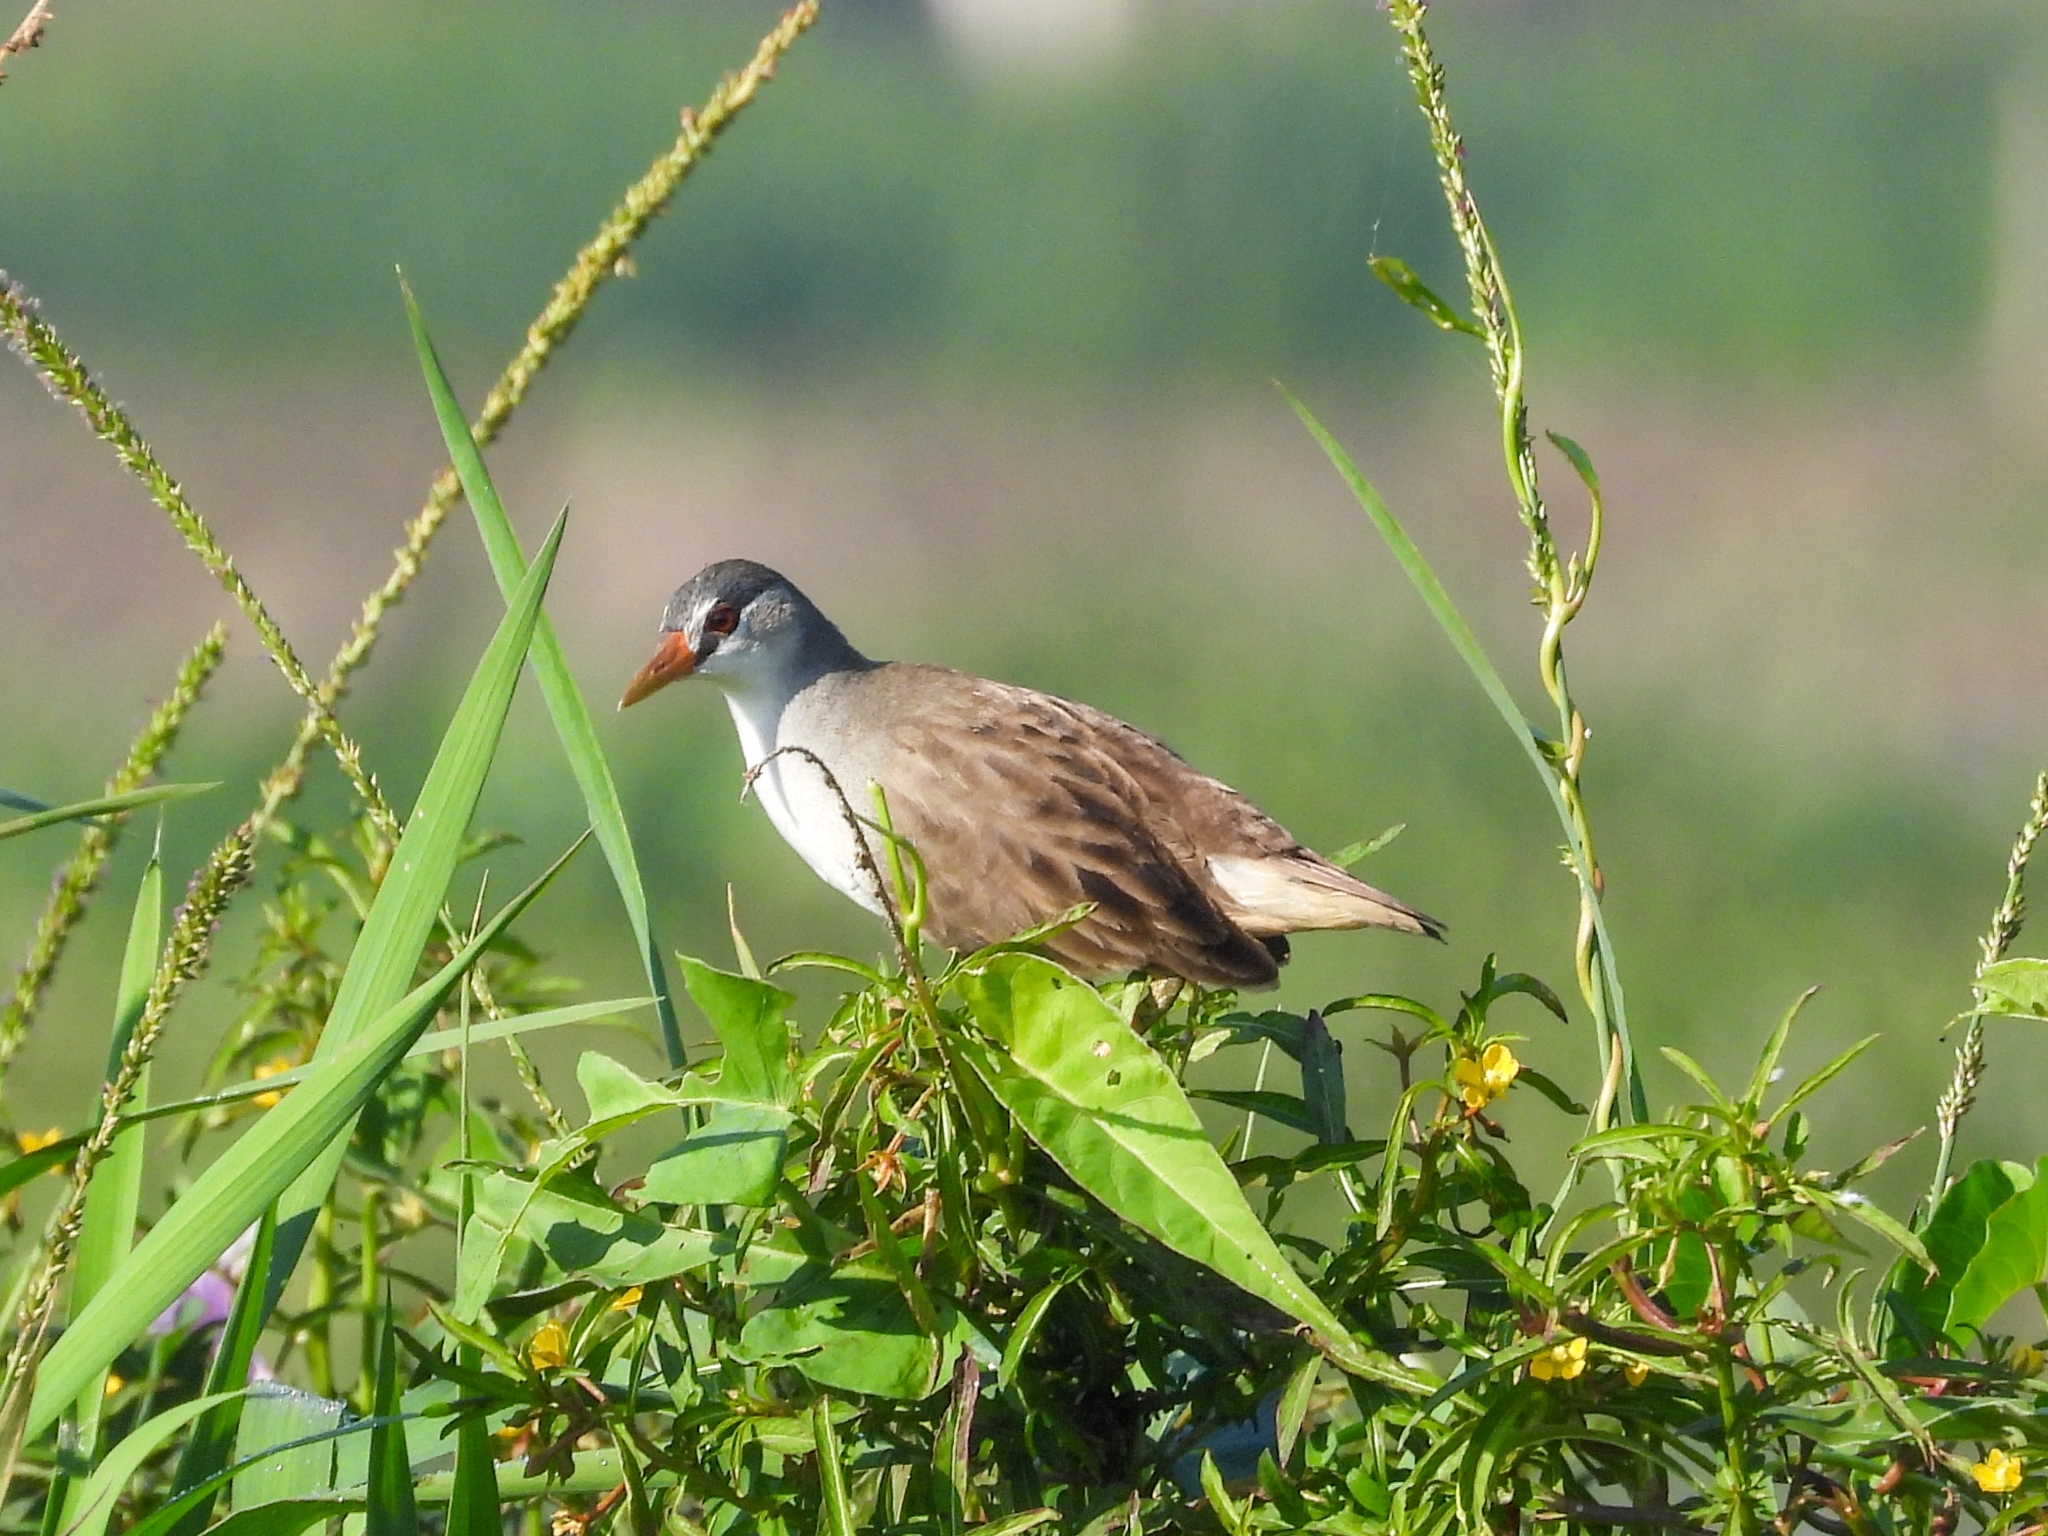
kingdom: Animalia
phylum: Chordata
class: Aves
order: Gruiformes
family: Rallidae
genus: Porzana
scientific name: Porzana cinerea
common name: White-browed crake
